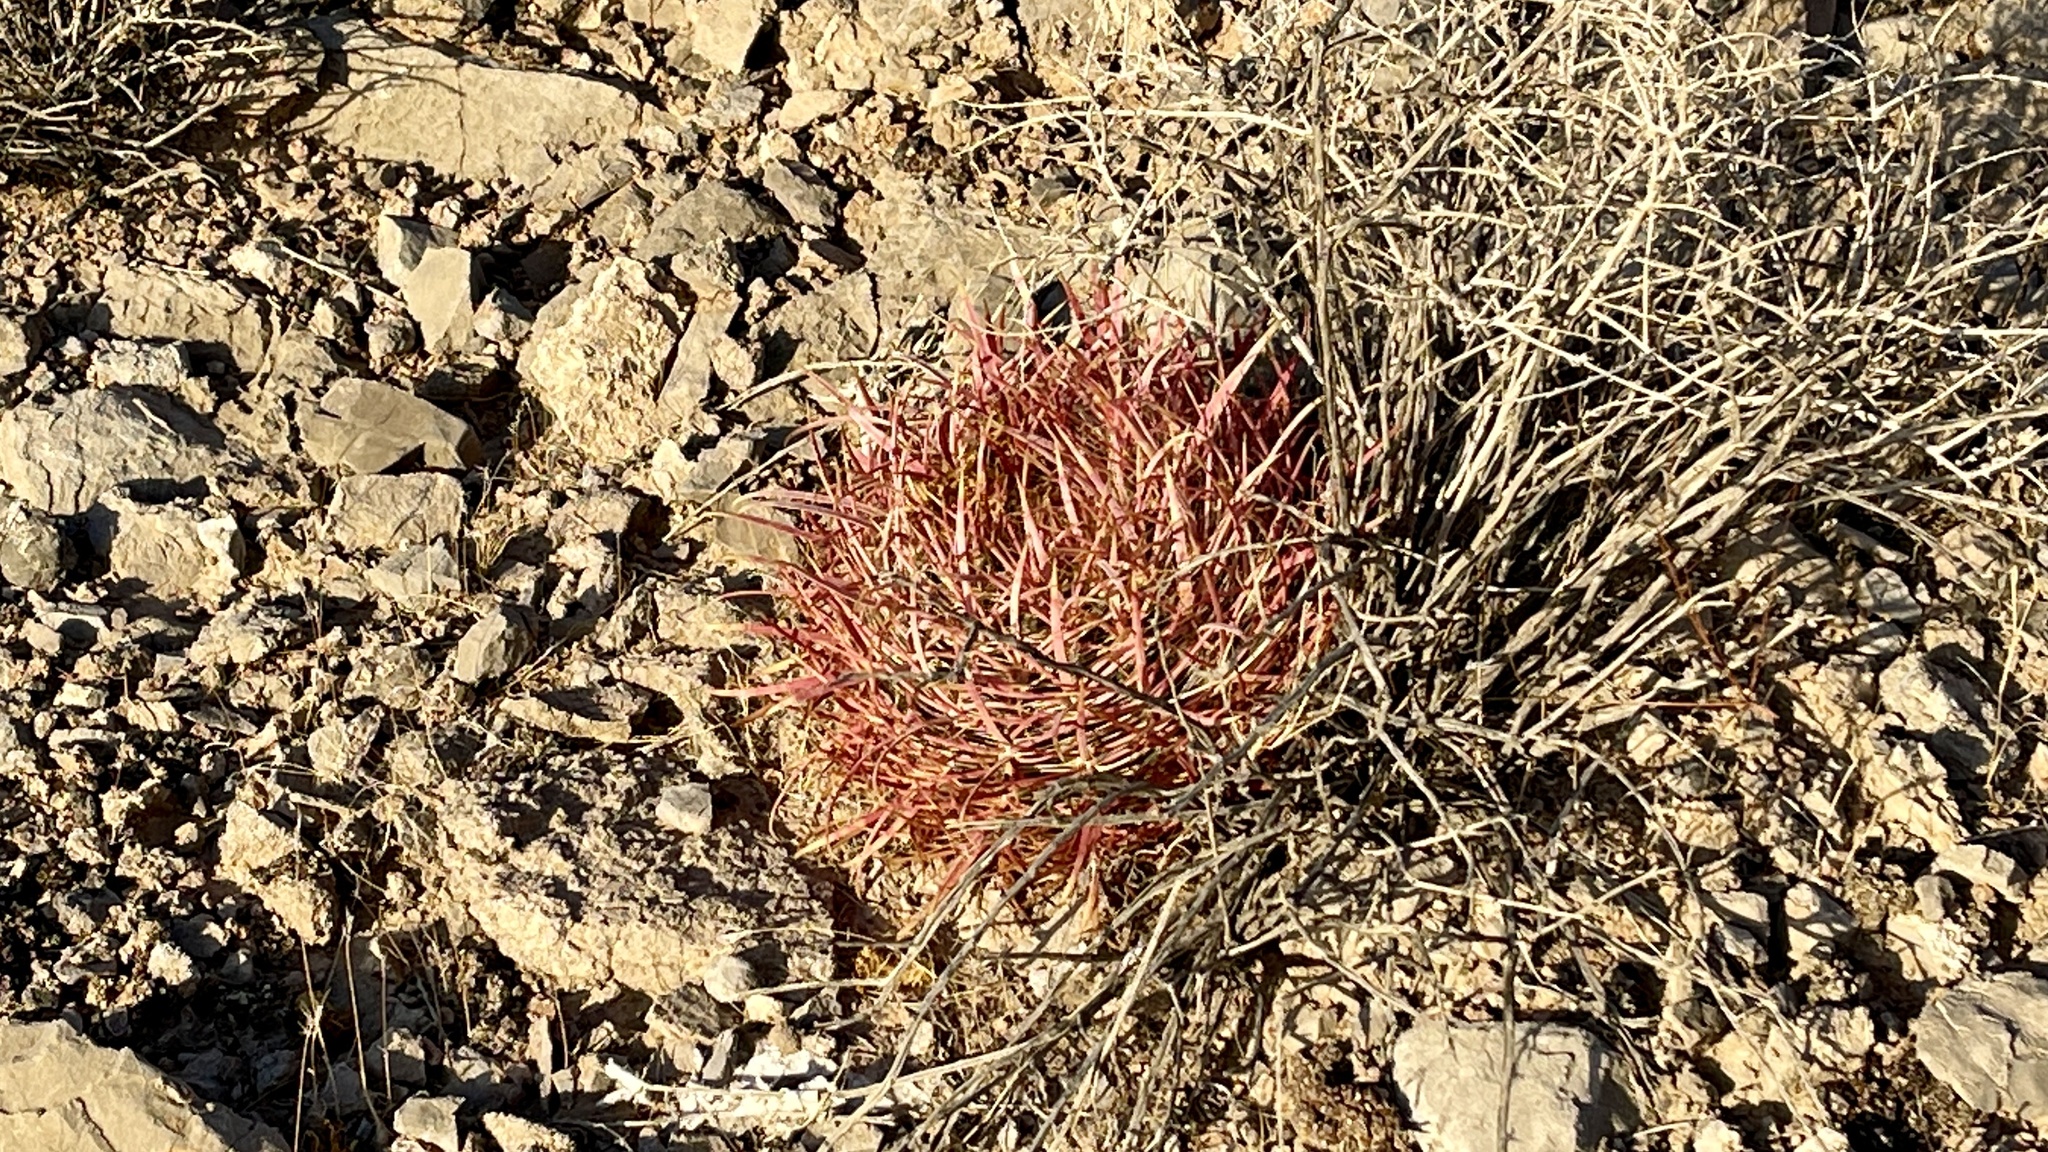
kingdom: Plantae
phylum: Tracheophyta
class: Magnoliopsida
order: Caryophyllales
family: Cactaceae
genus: Ferocactus
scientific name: Ferocactus cylindraceus
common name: California barrel cactus
